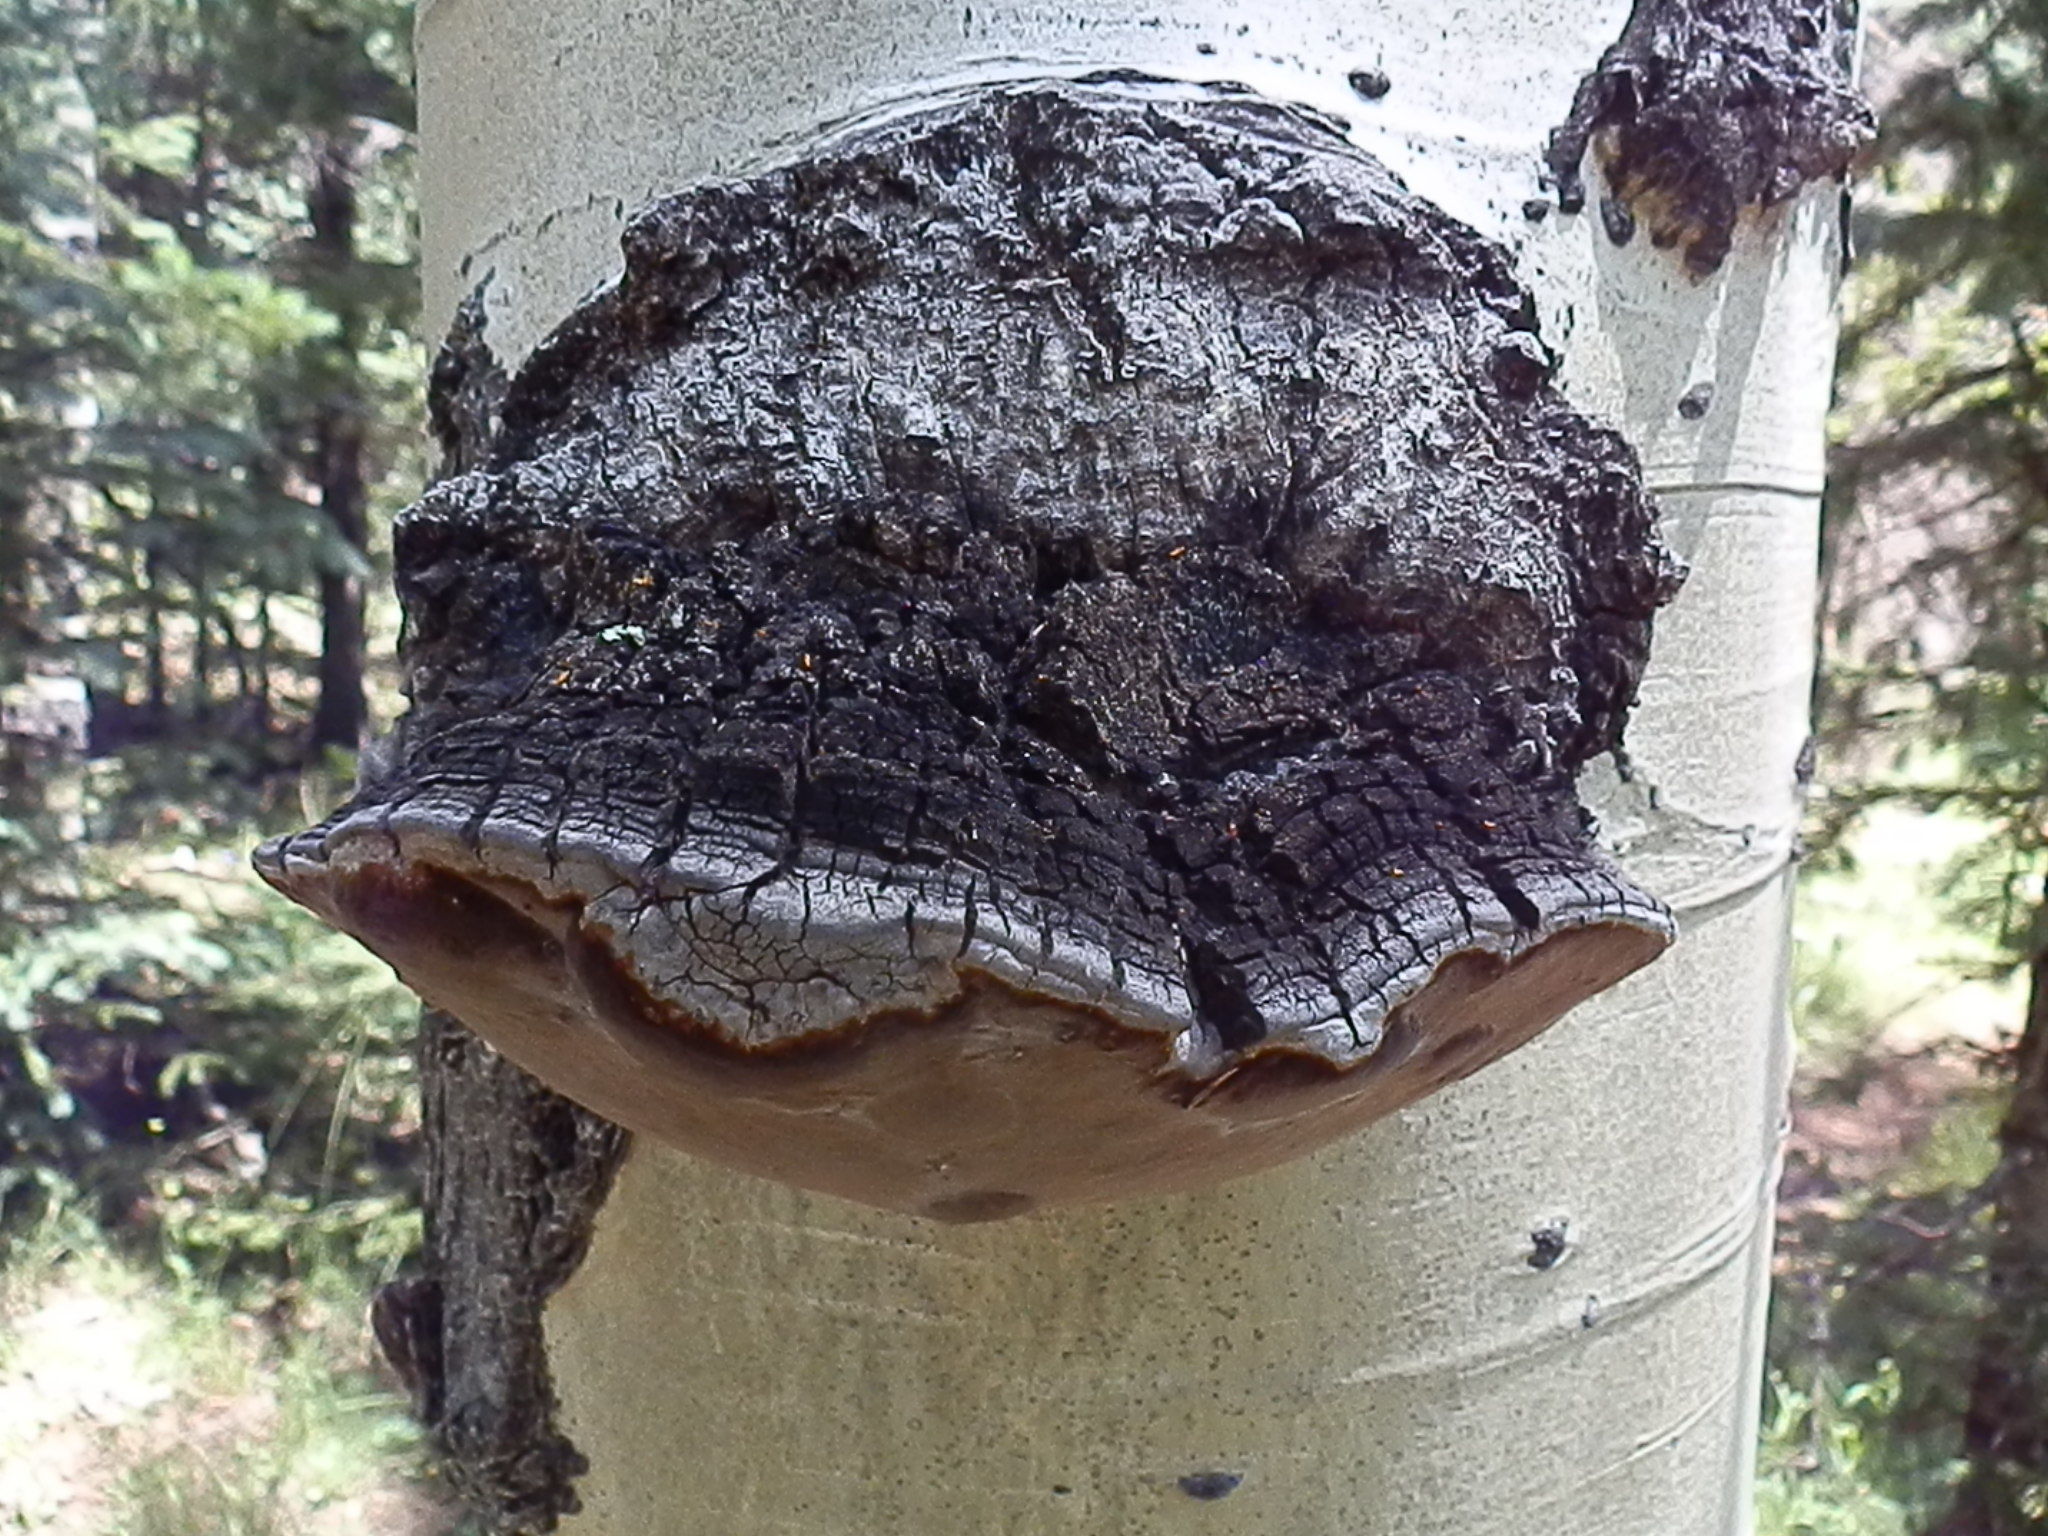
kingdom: Fungi
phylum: Basidiomycota
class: Agaricomycetes
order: Hymenochaetales
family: Hymenochaetaceae
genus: Phellinus
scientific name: Phellinus tremulae
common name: Aspen bracket
